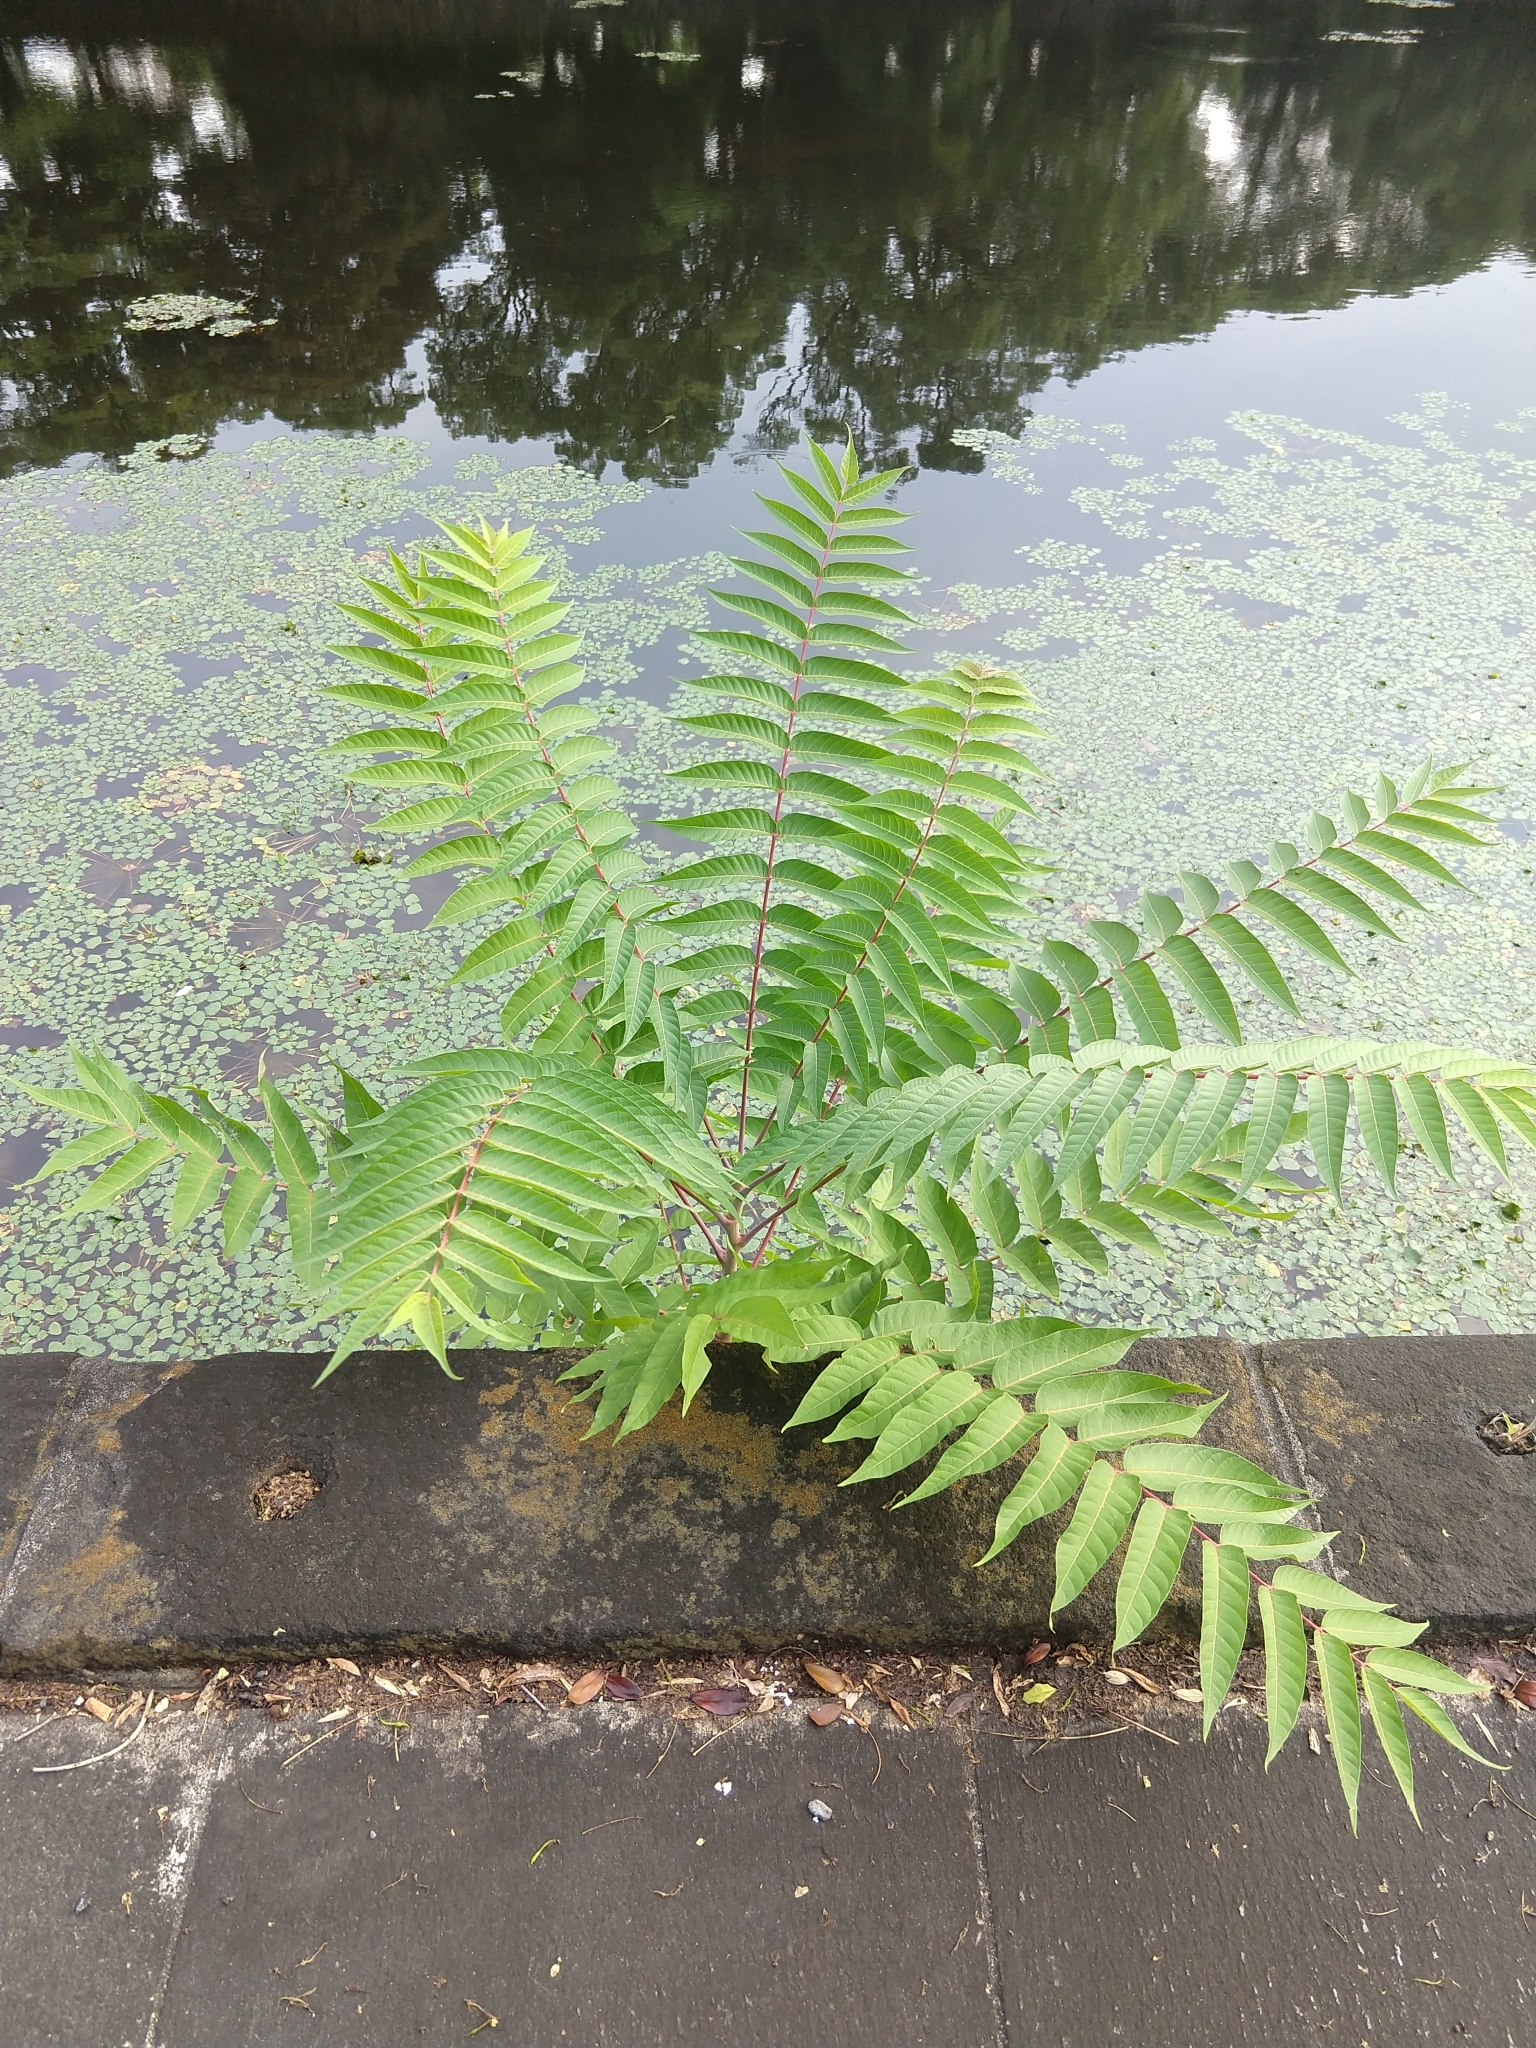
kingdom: Plantae
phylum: Tracheophyta
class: Magnoliopsida
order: Sapindales
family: Simaroubaceae
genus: Ailanthus
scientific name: Ailanthus altissima
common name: Tree-of-heaven
